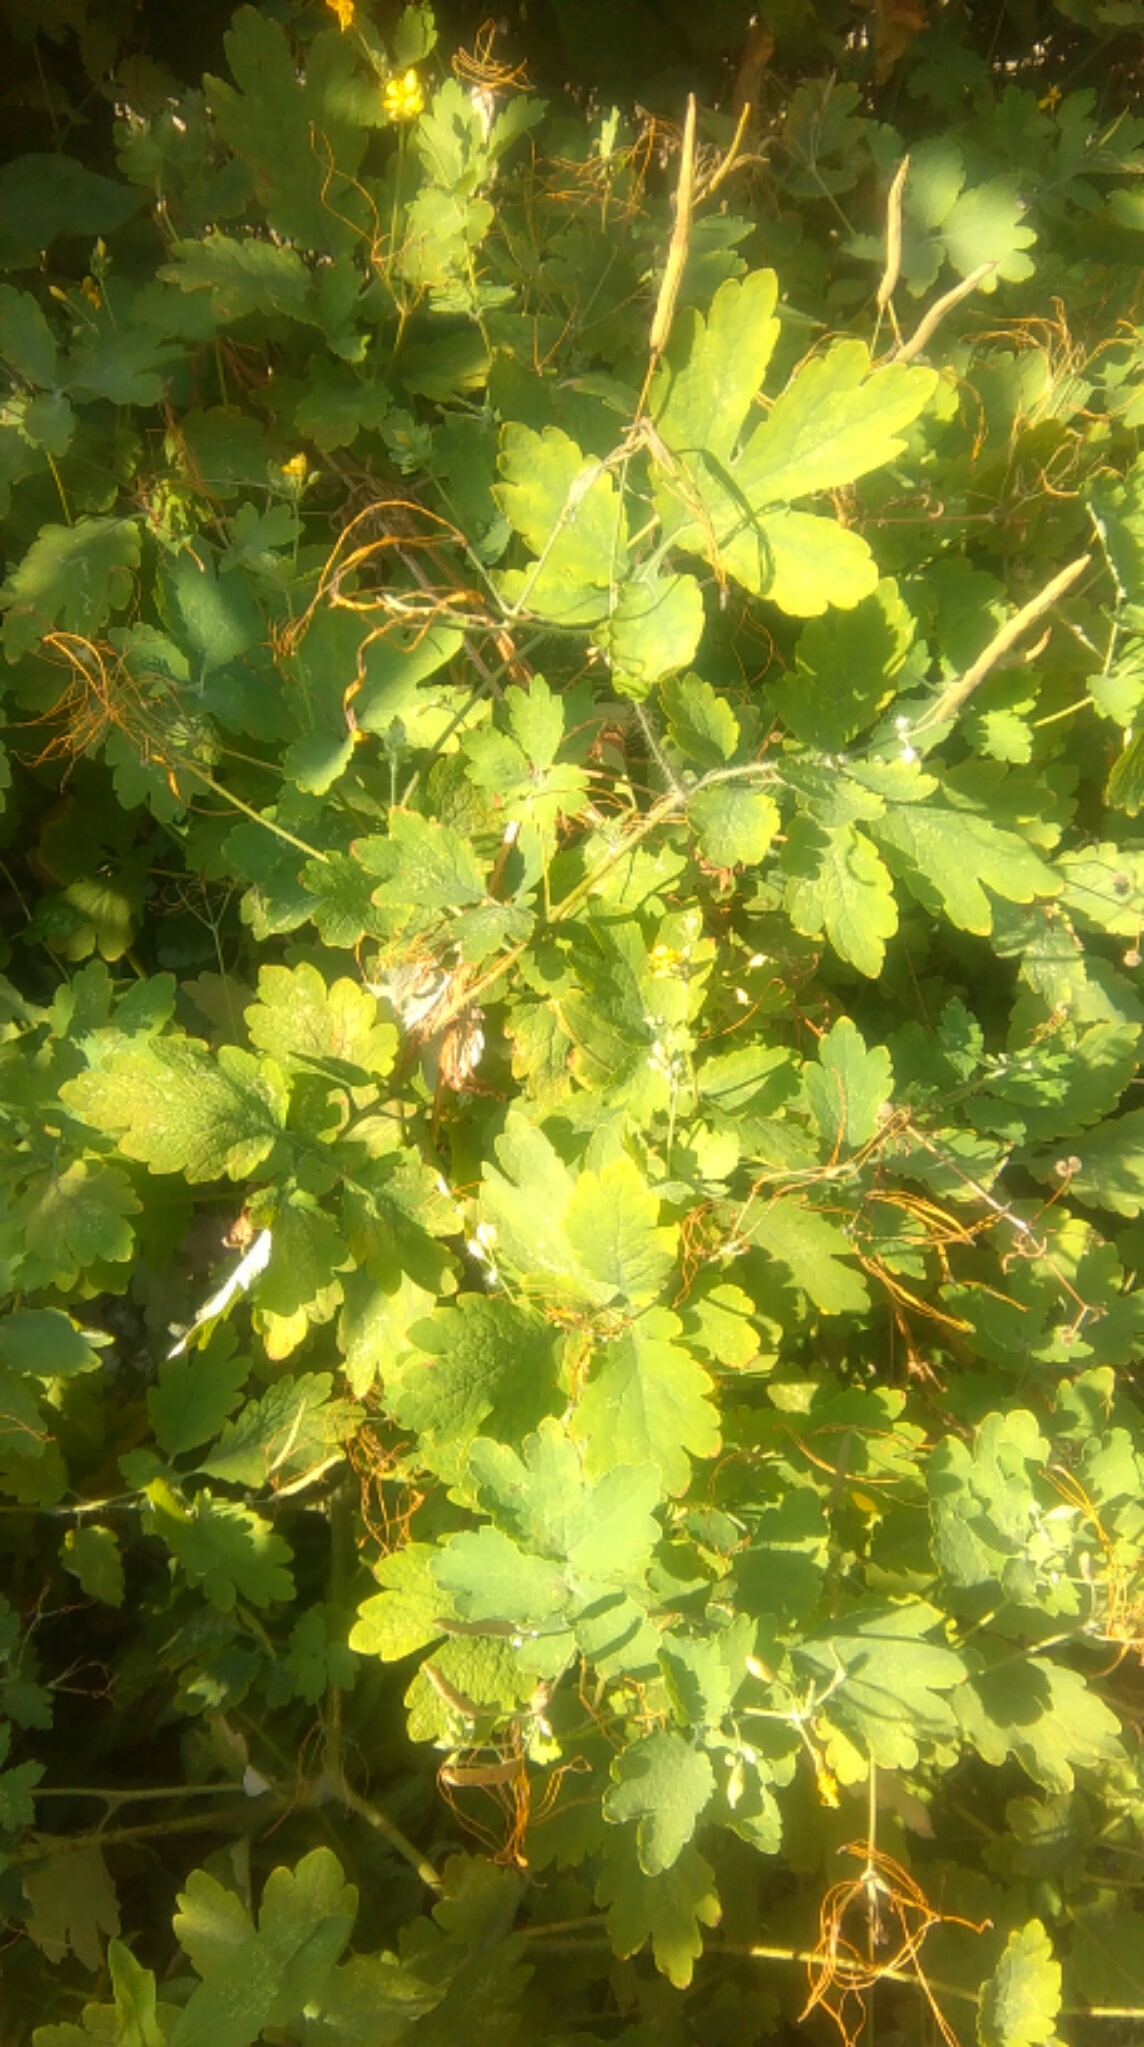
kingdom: Plantae
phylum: Tracheophyta
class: Magnoliopsida
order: Ranunculales
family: Papaveraceae
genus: Chelidonium
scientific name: Chelidonium majus
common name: Greater celandine
